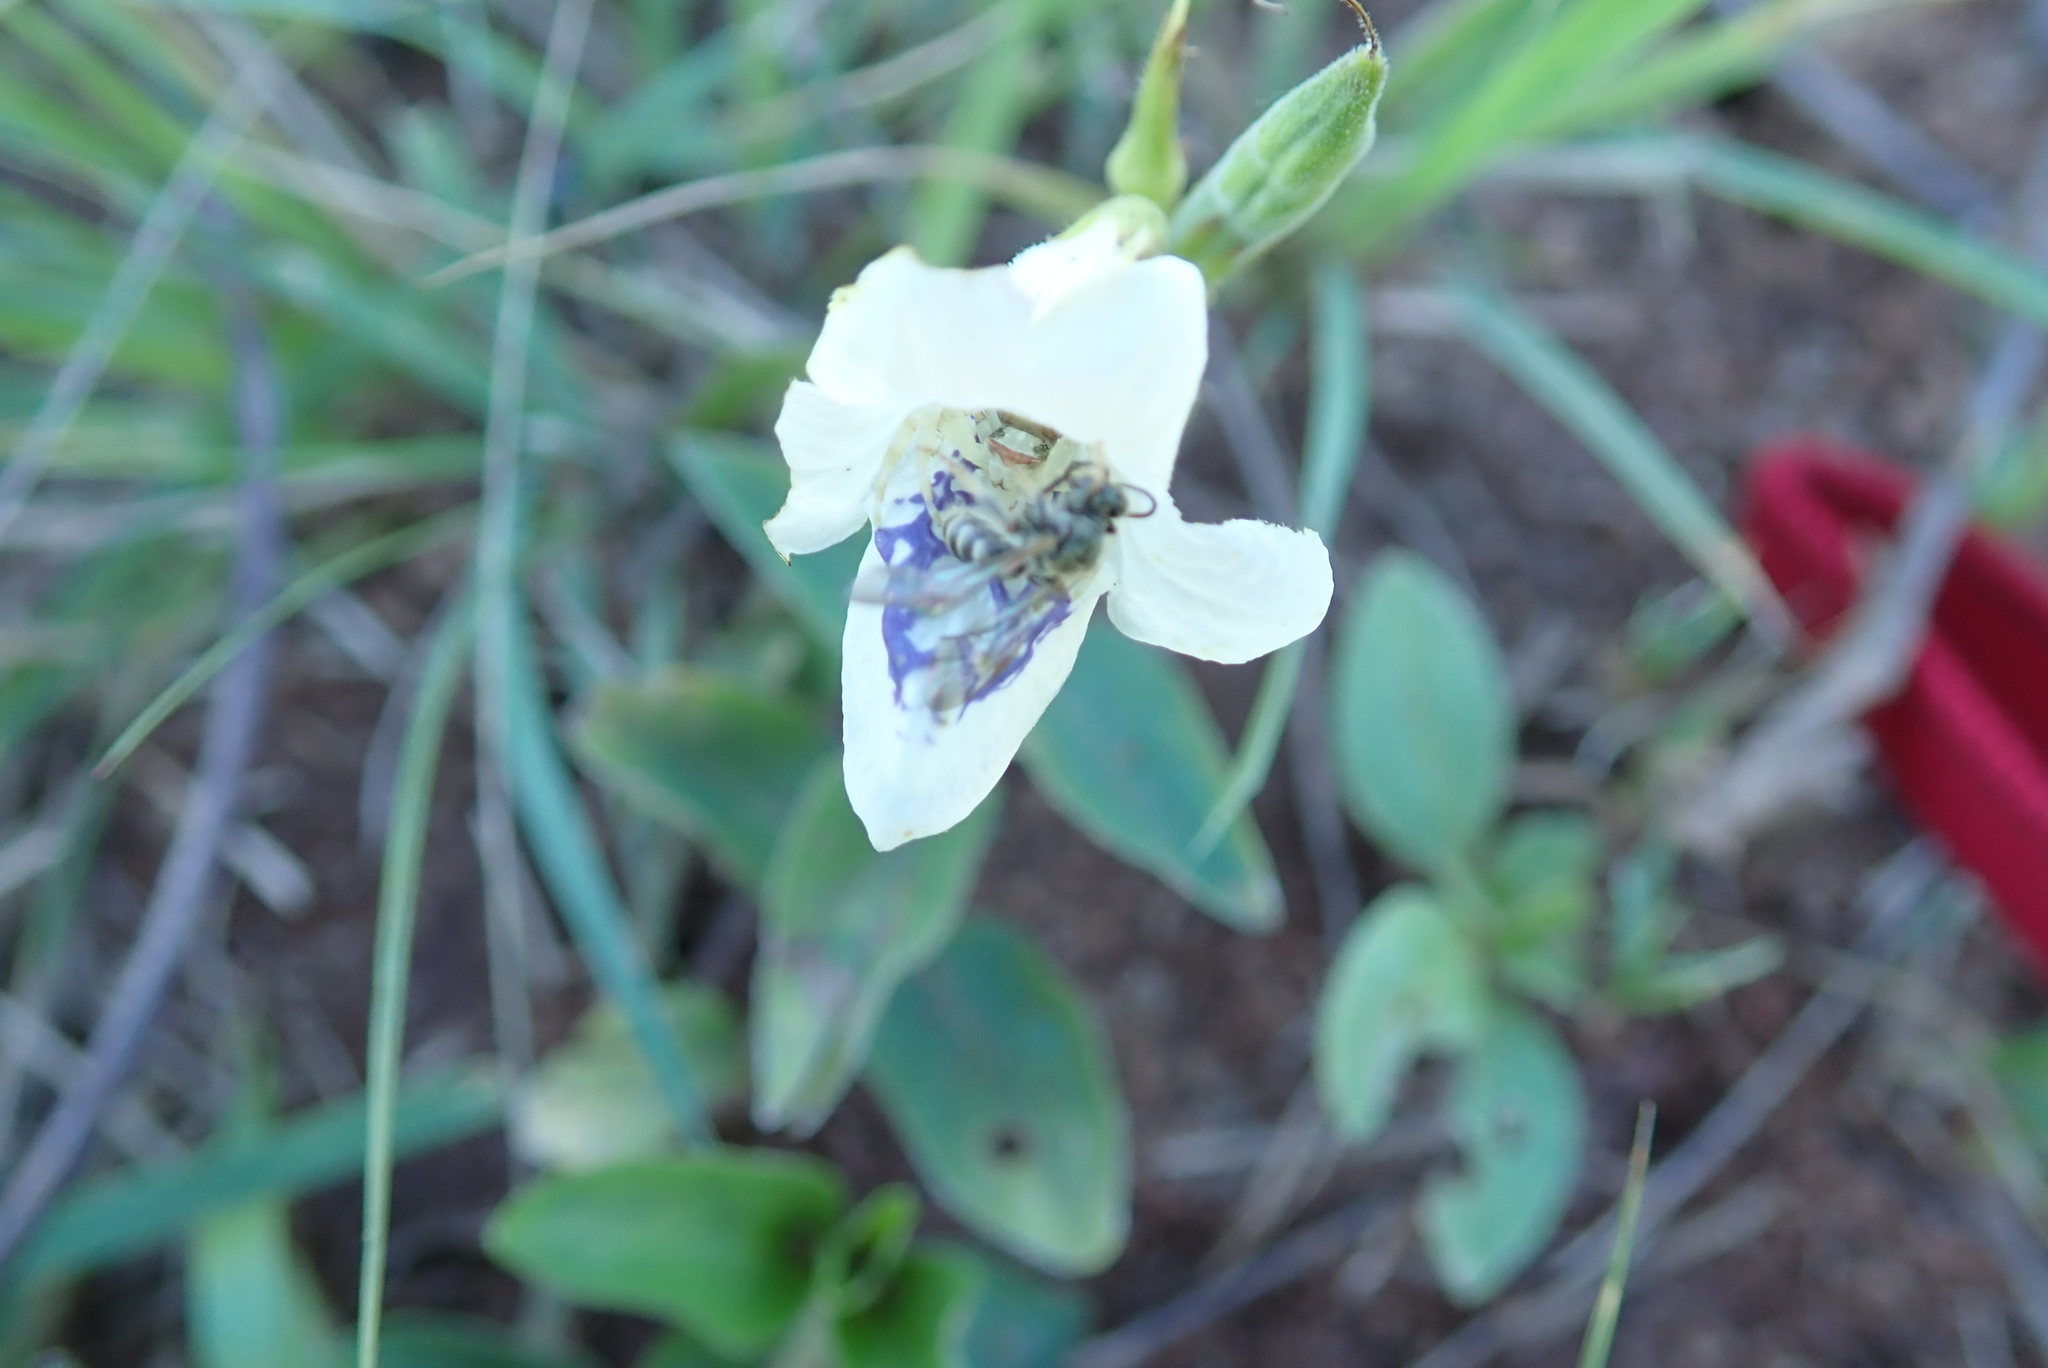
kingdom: Plantae
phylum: Tracheophyta
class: Magnoliopsida
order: Lamiales
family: Acanthaceae
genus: Asystasia
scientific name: Asystasia intrusa
